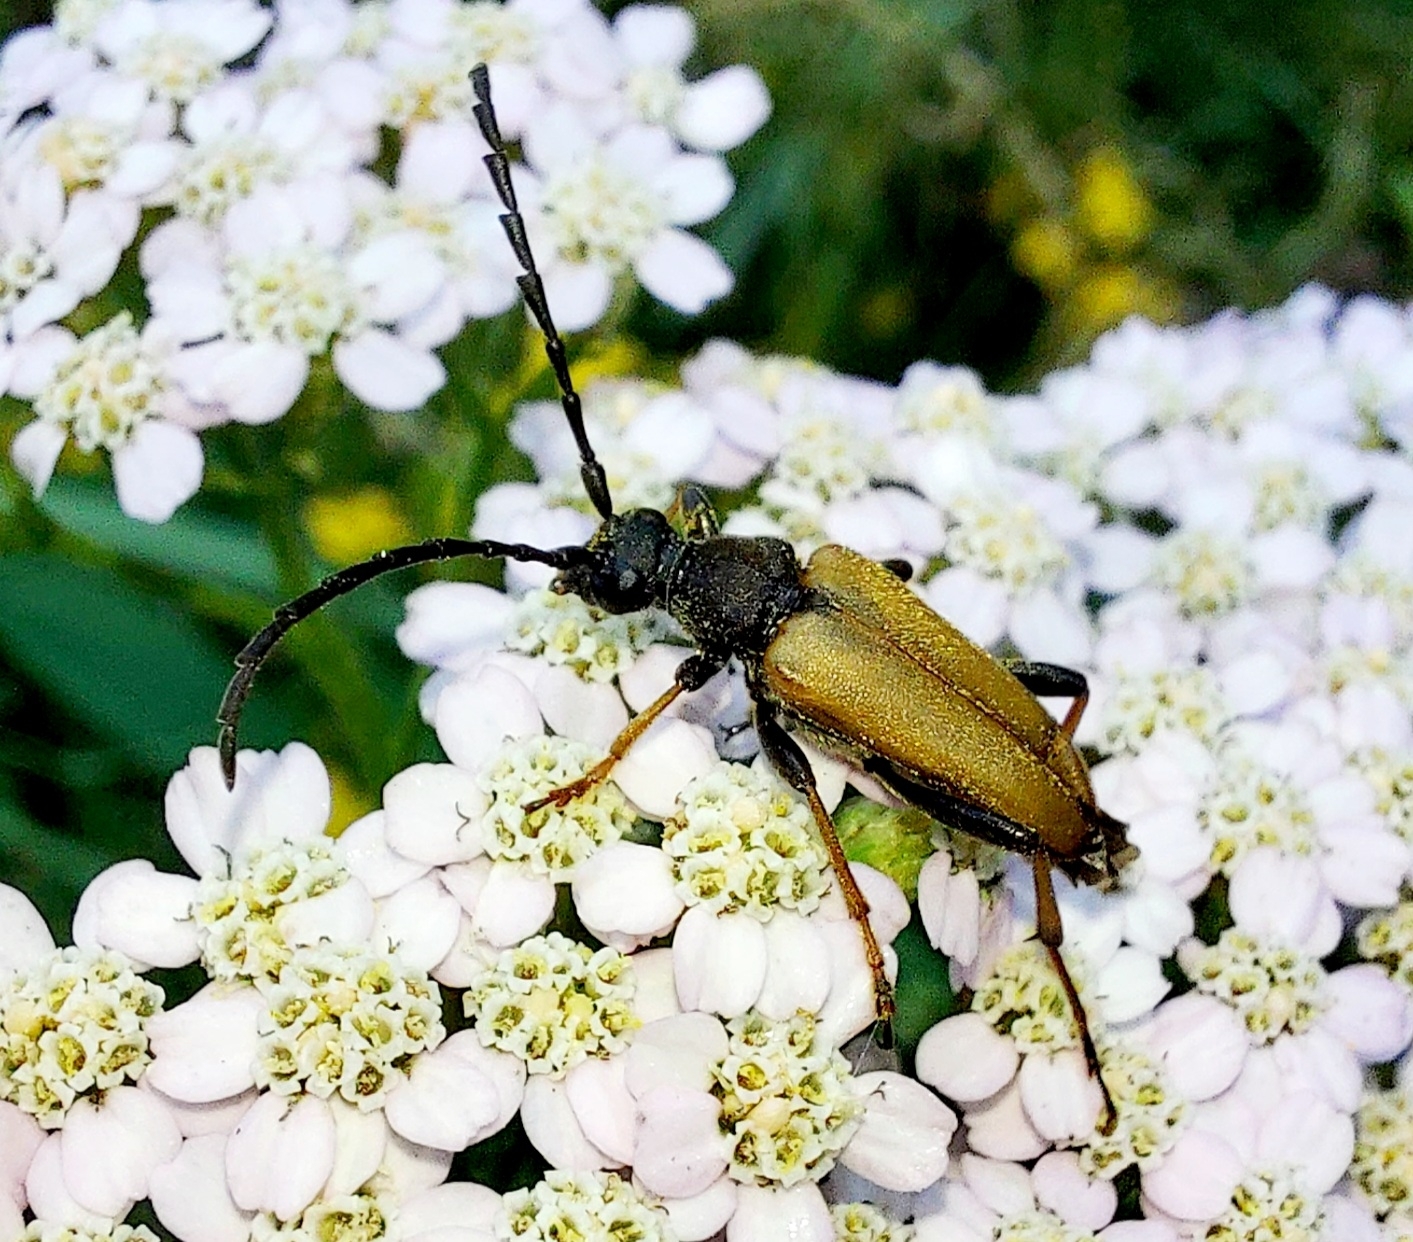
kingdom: Animalia
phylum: Arthropoda
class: Insecta
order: Coleoptera
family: Cerambycidae
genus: Stictoleptura
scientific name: Stictoleptura rubra
